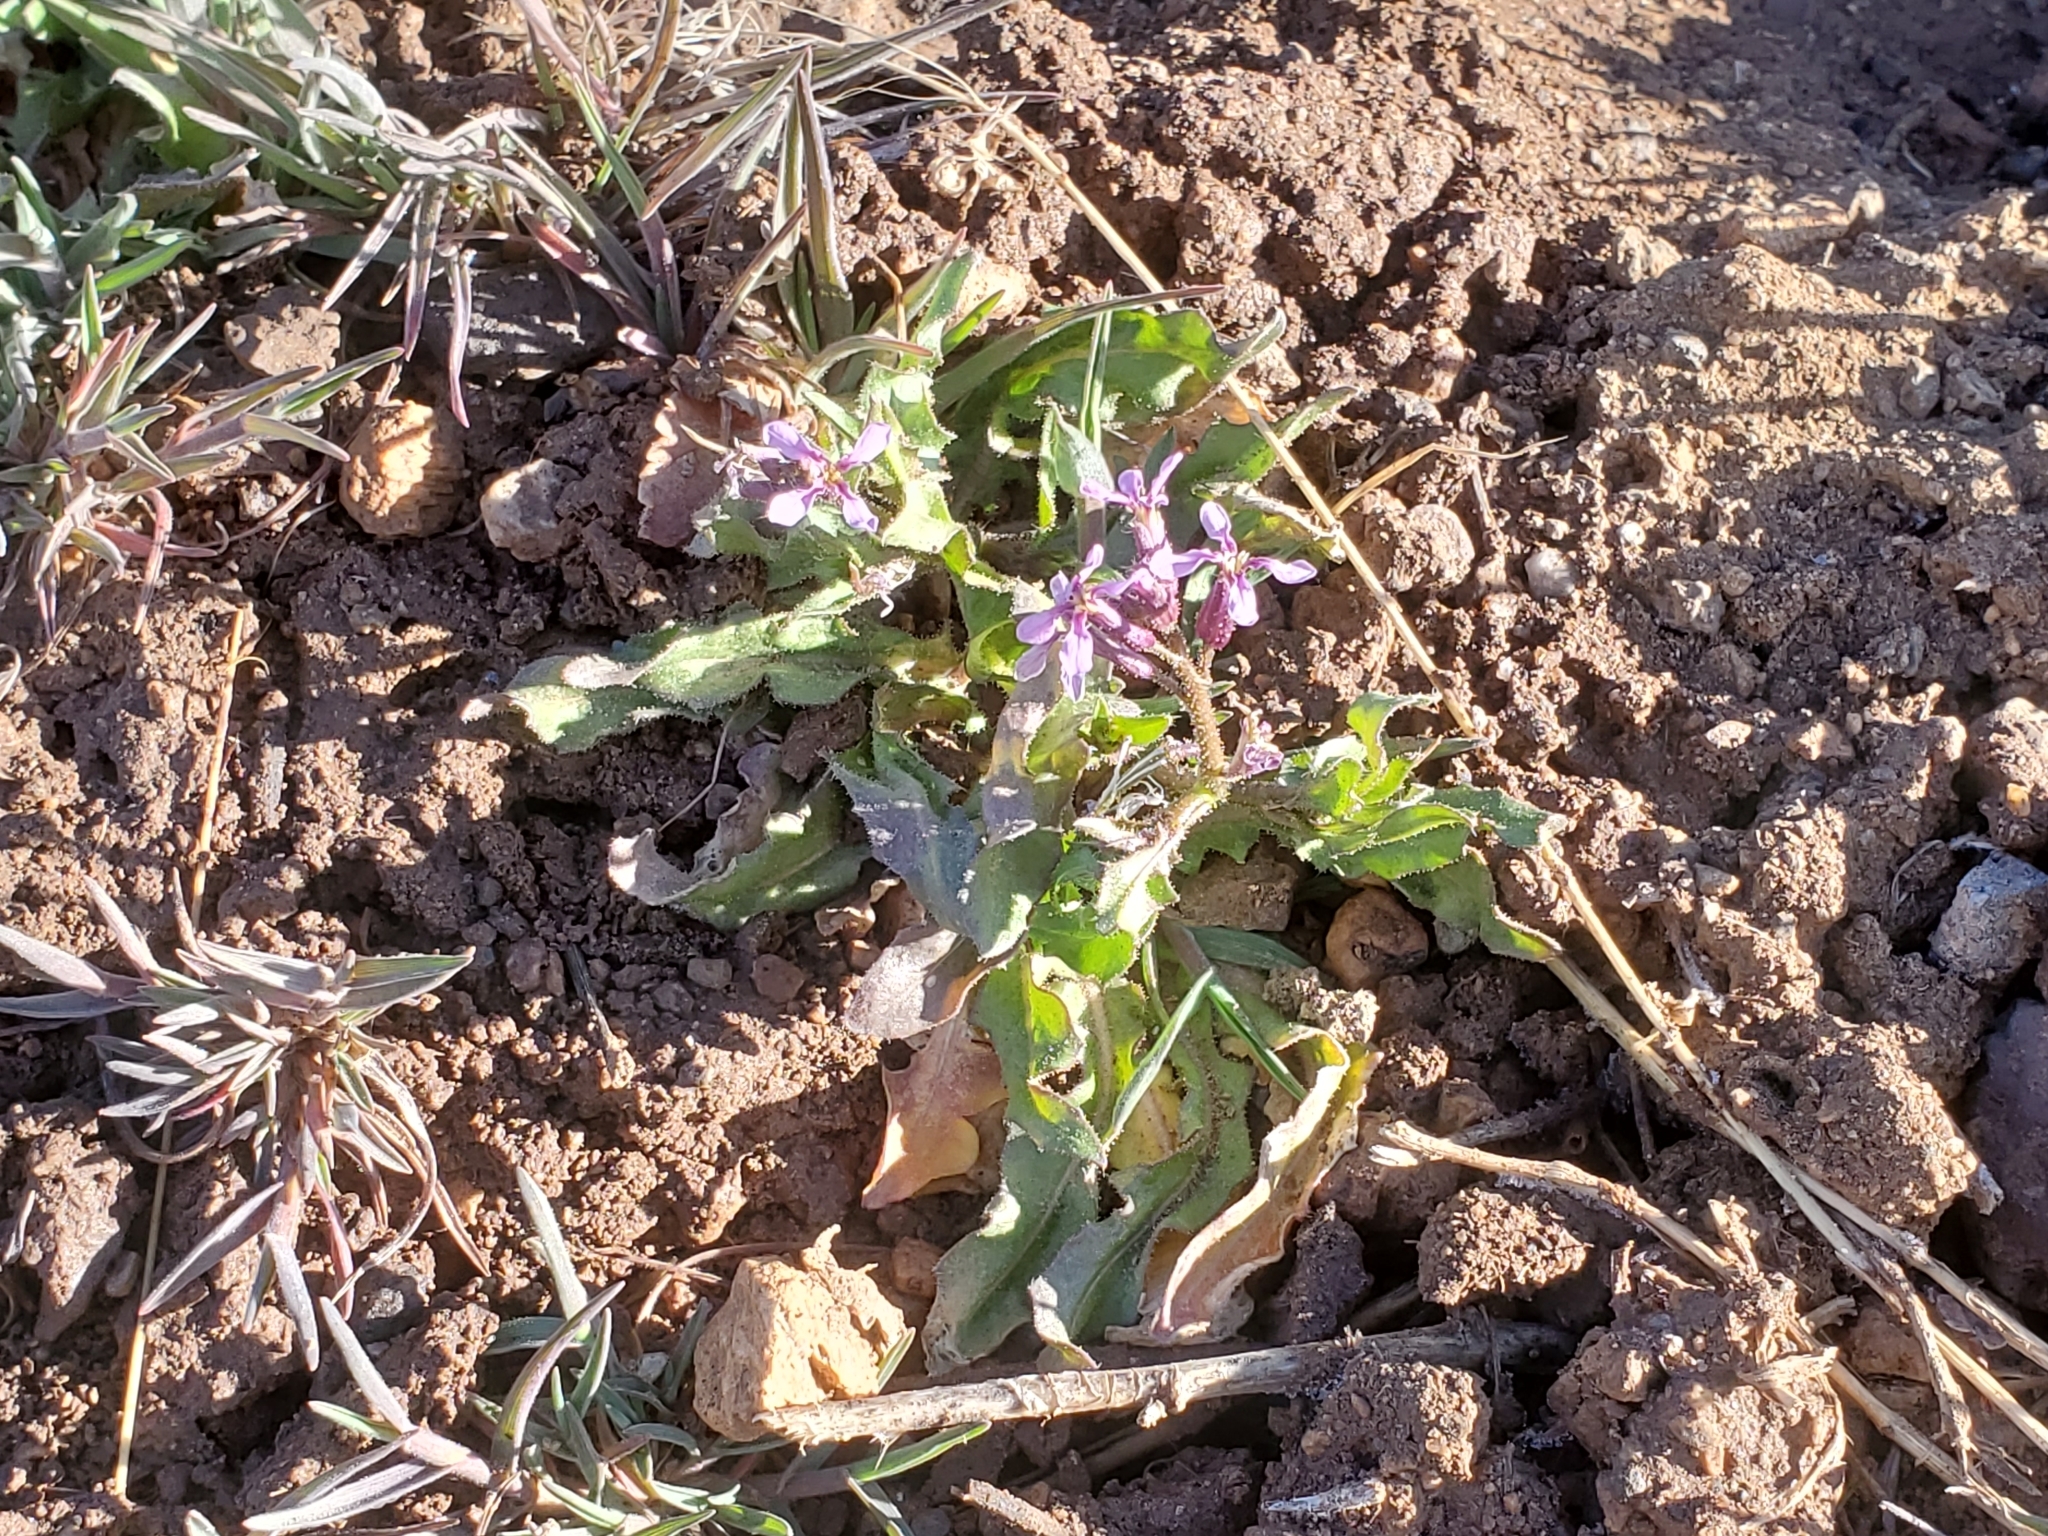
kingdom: Plantae
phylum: Tracheophyta
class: Magnoliopsida
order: Brassicales
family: Brassicaceae
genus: Chorispora
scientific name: Chorispora tenella
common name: Crossflower
